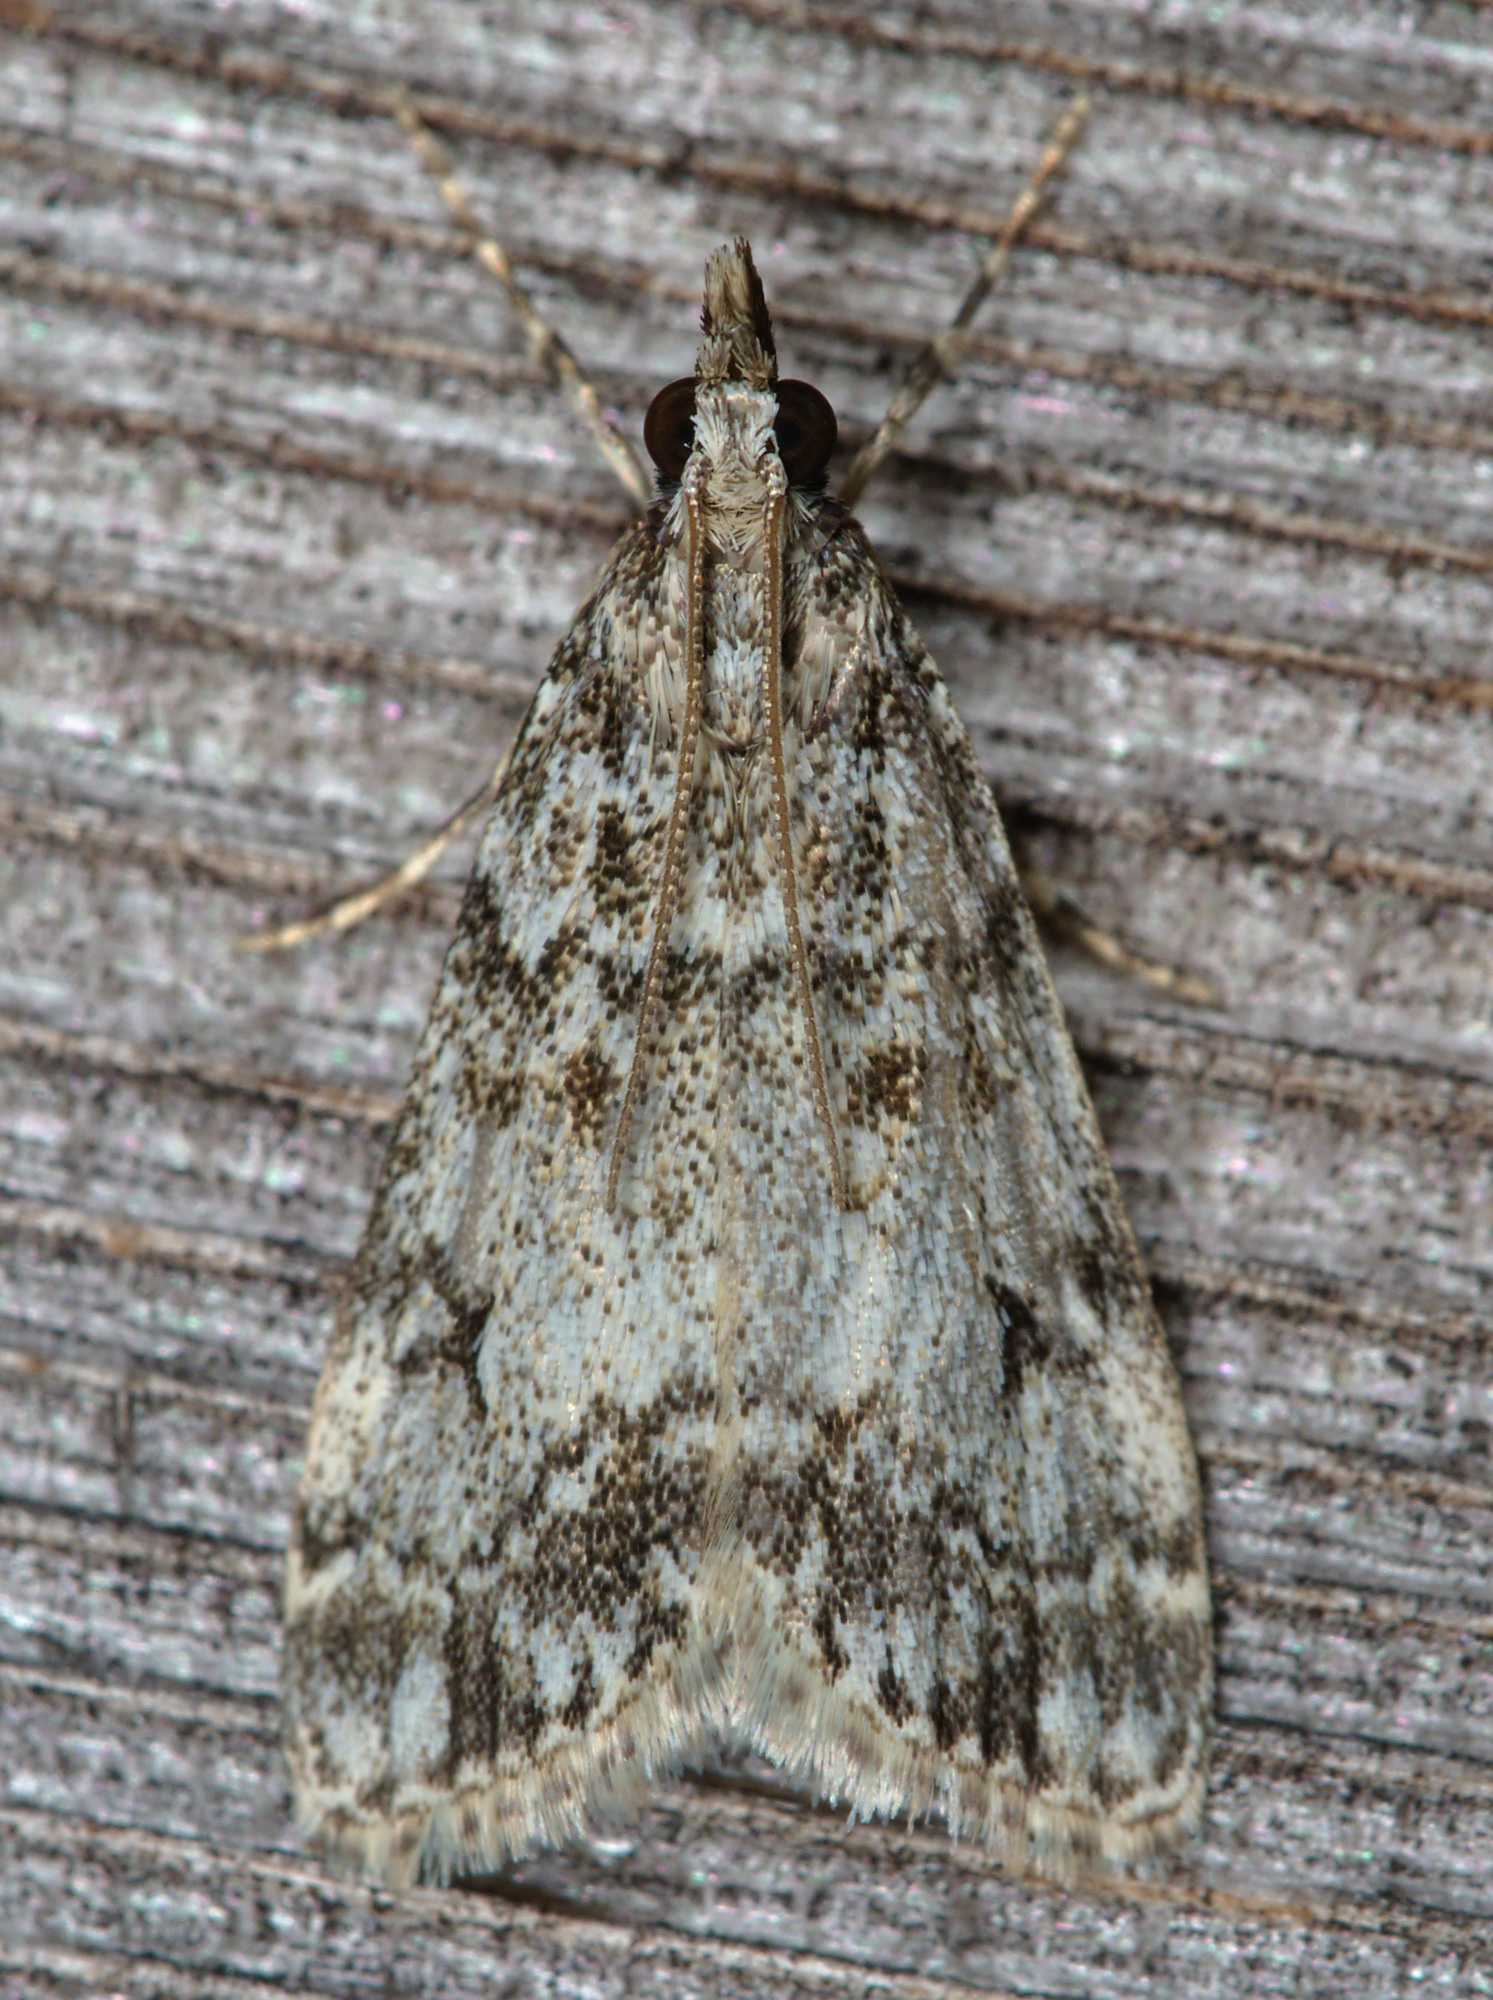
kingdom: Animalia
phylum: Arthropoda
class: Insecta
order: Lepidoptera
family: Crambidae
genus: Eudonia
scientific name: Eudonia lacustrata
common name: Little grey
